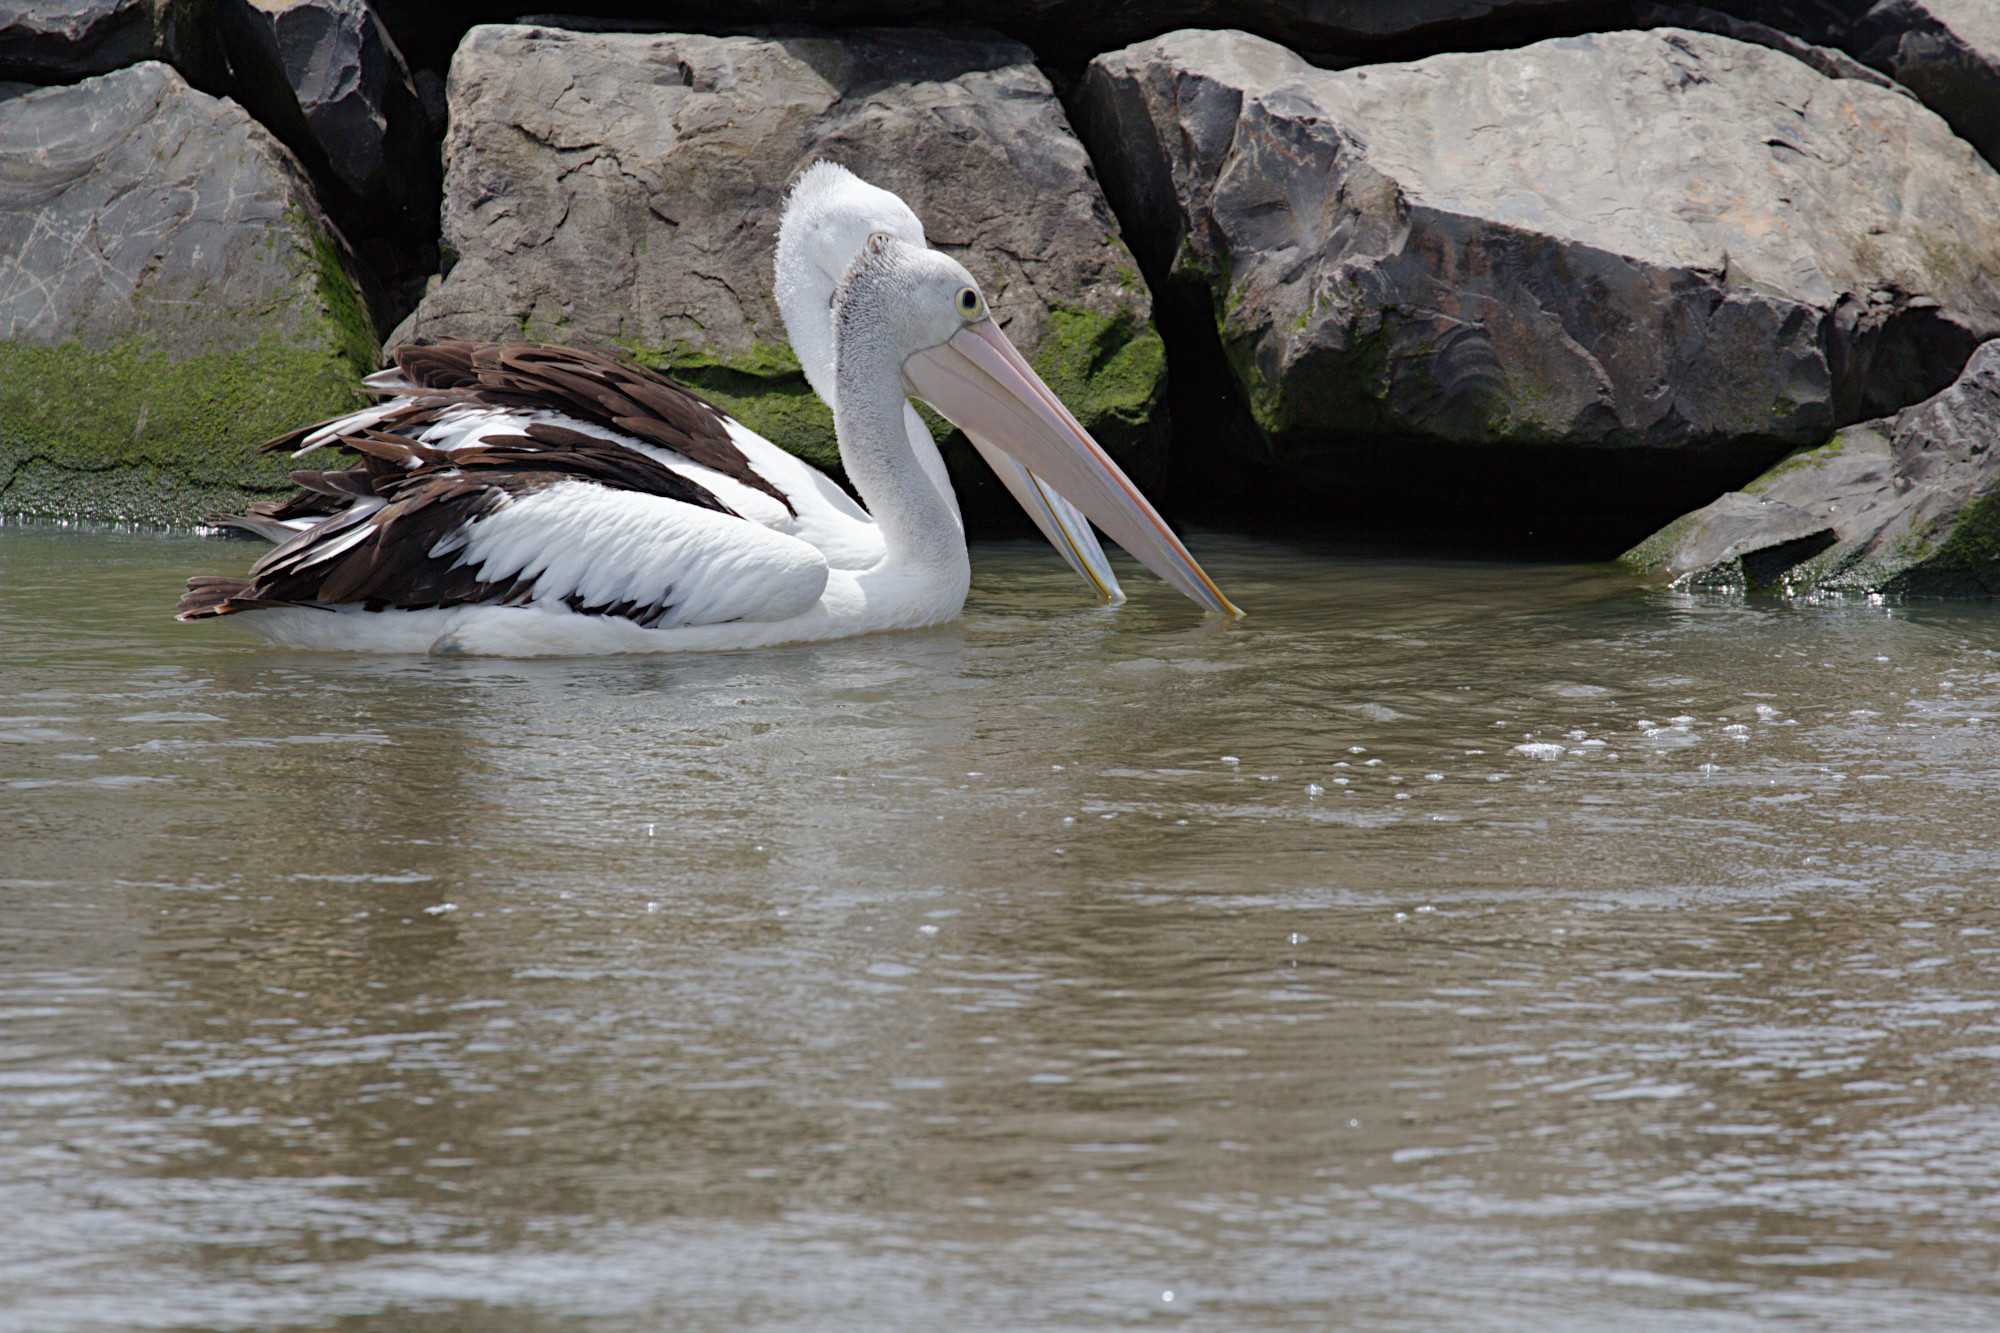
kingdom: Animalia
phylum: Chordata
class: Aves
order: Pelecaniformes
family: Pelecanidae
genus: Pelecanus
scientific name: Pelecanus conspicillatus
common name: Australian pelican
